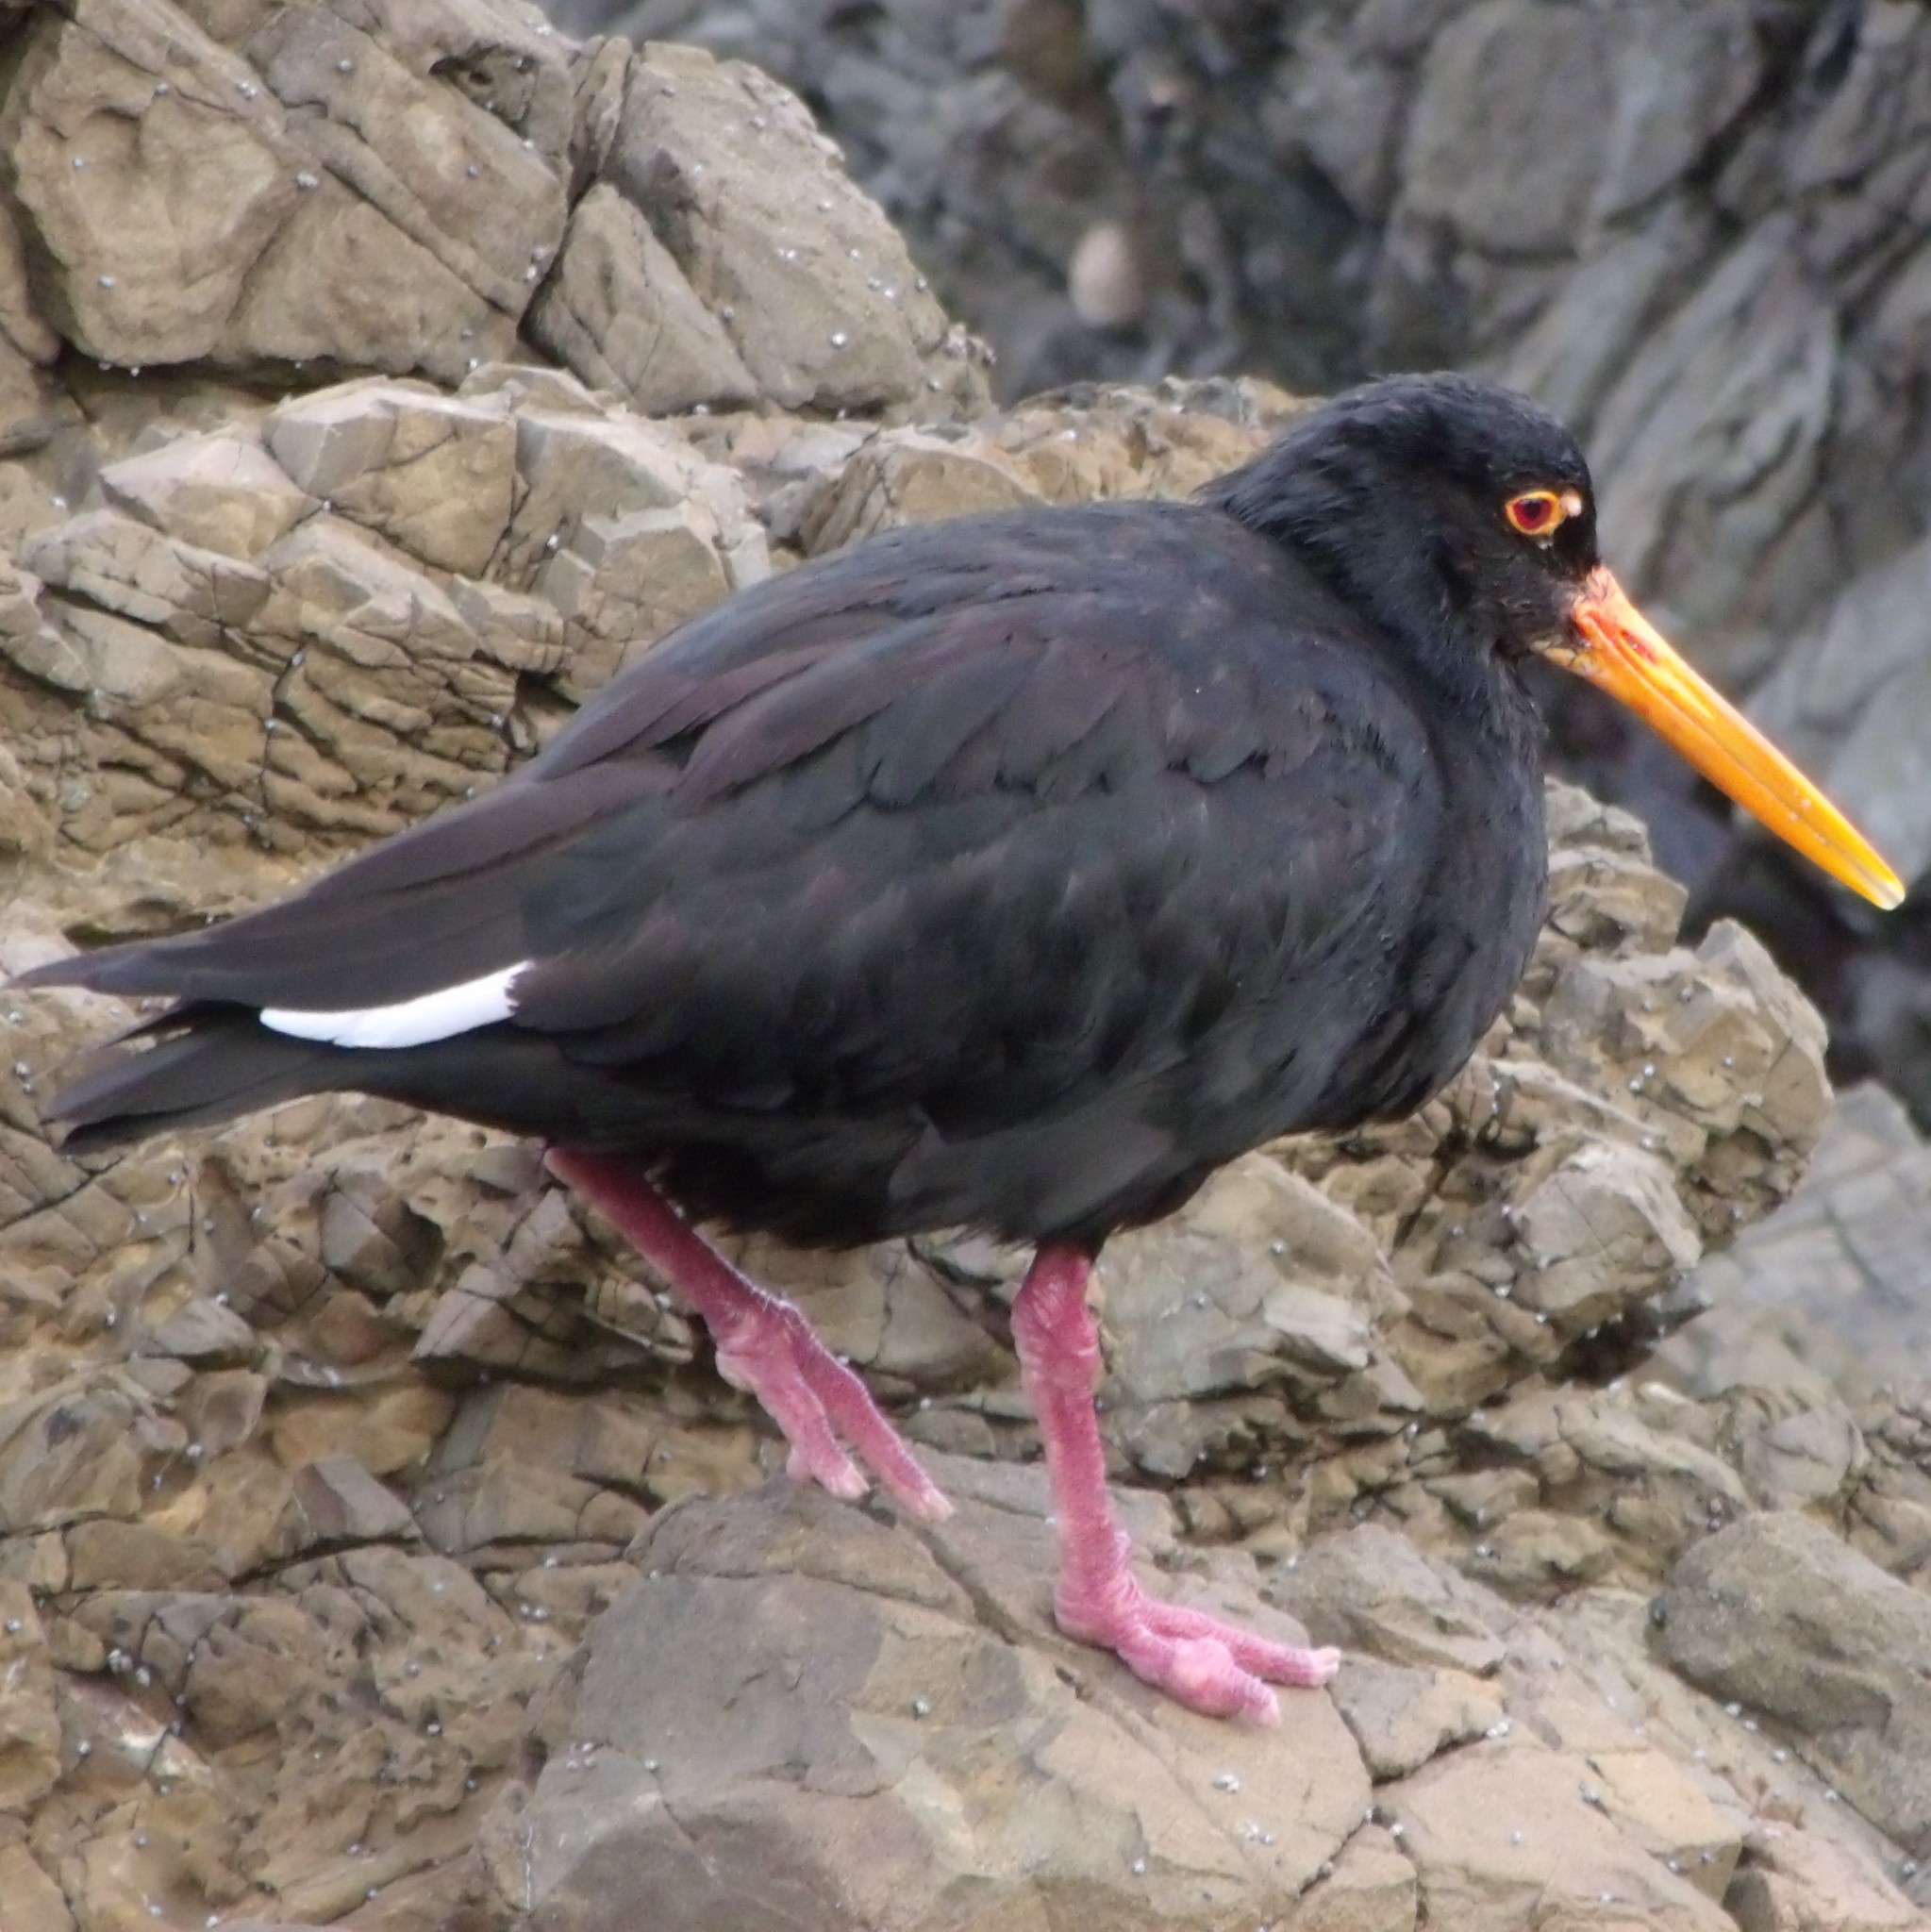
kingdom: Animalia
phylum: Chordata
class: Aves
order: Charadriiformes
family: Haematopodidae
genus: Haematopus
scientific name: Haematopus unicolor
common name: Variable oystercatcher
